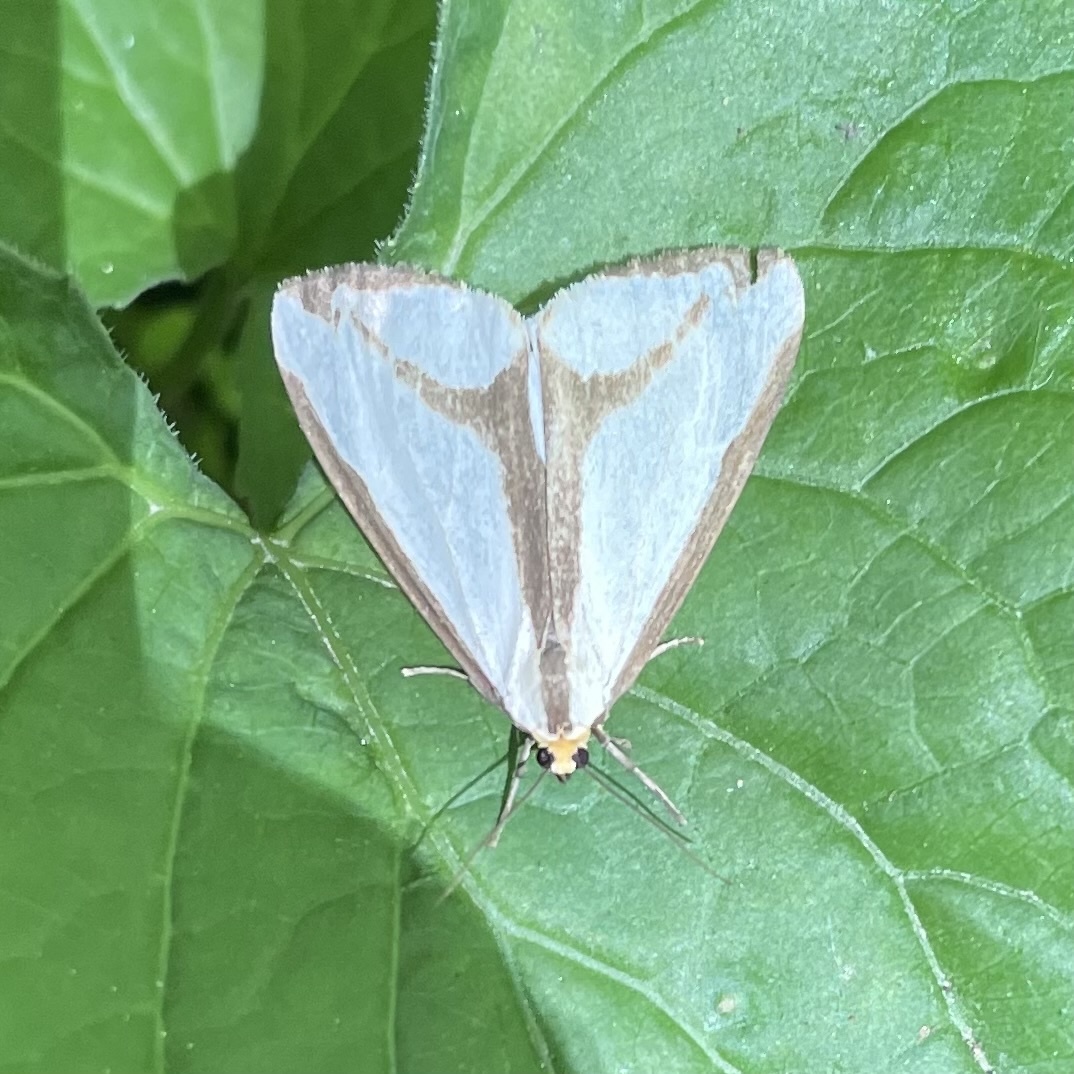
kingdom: Animalia
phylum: Arthropoda
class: Insecta
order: Lepidoptera
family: Erebidae
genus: Haploa
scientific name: Haploa lecontei
